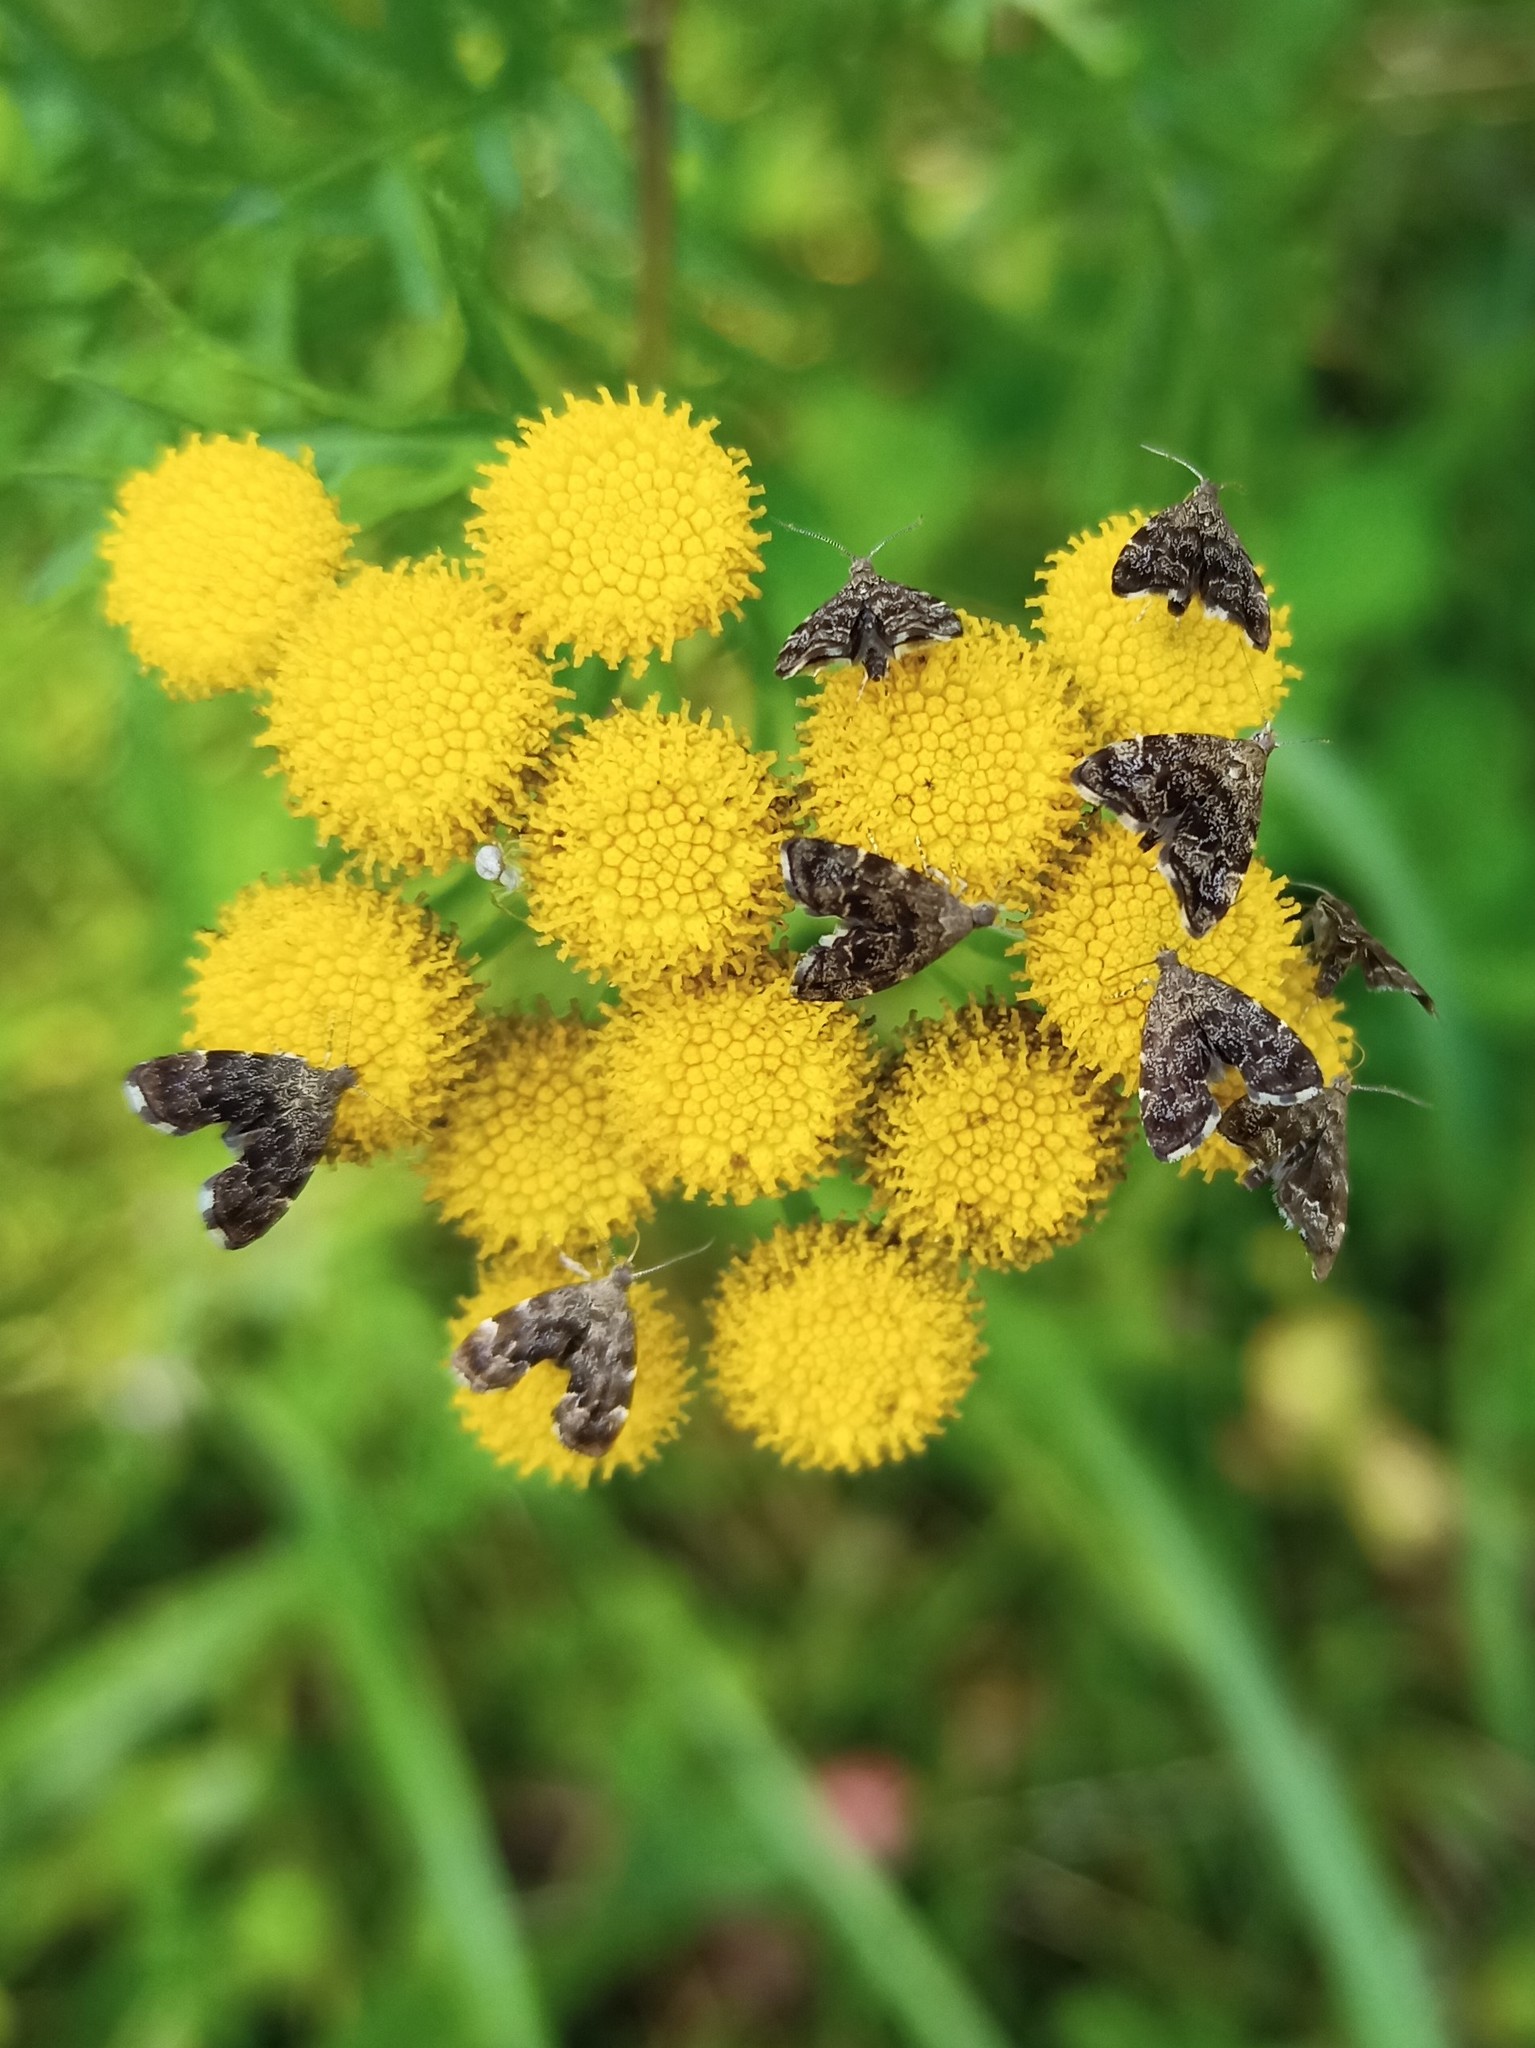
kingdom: Animalia
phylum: Arthropoda
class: Insecta
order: Lepidoptera
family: Choreutidae
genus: Anthophila
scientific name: Anthophila fabriciana
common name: Nettle-tap
